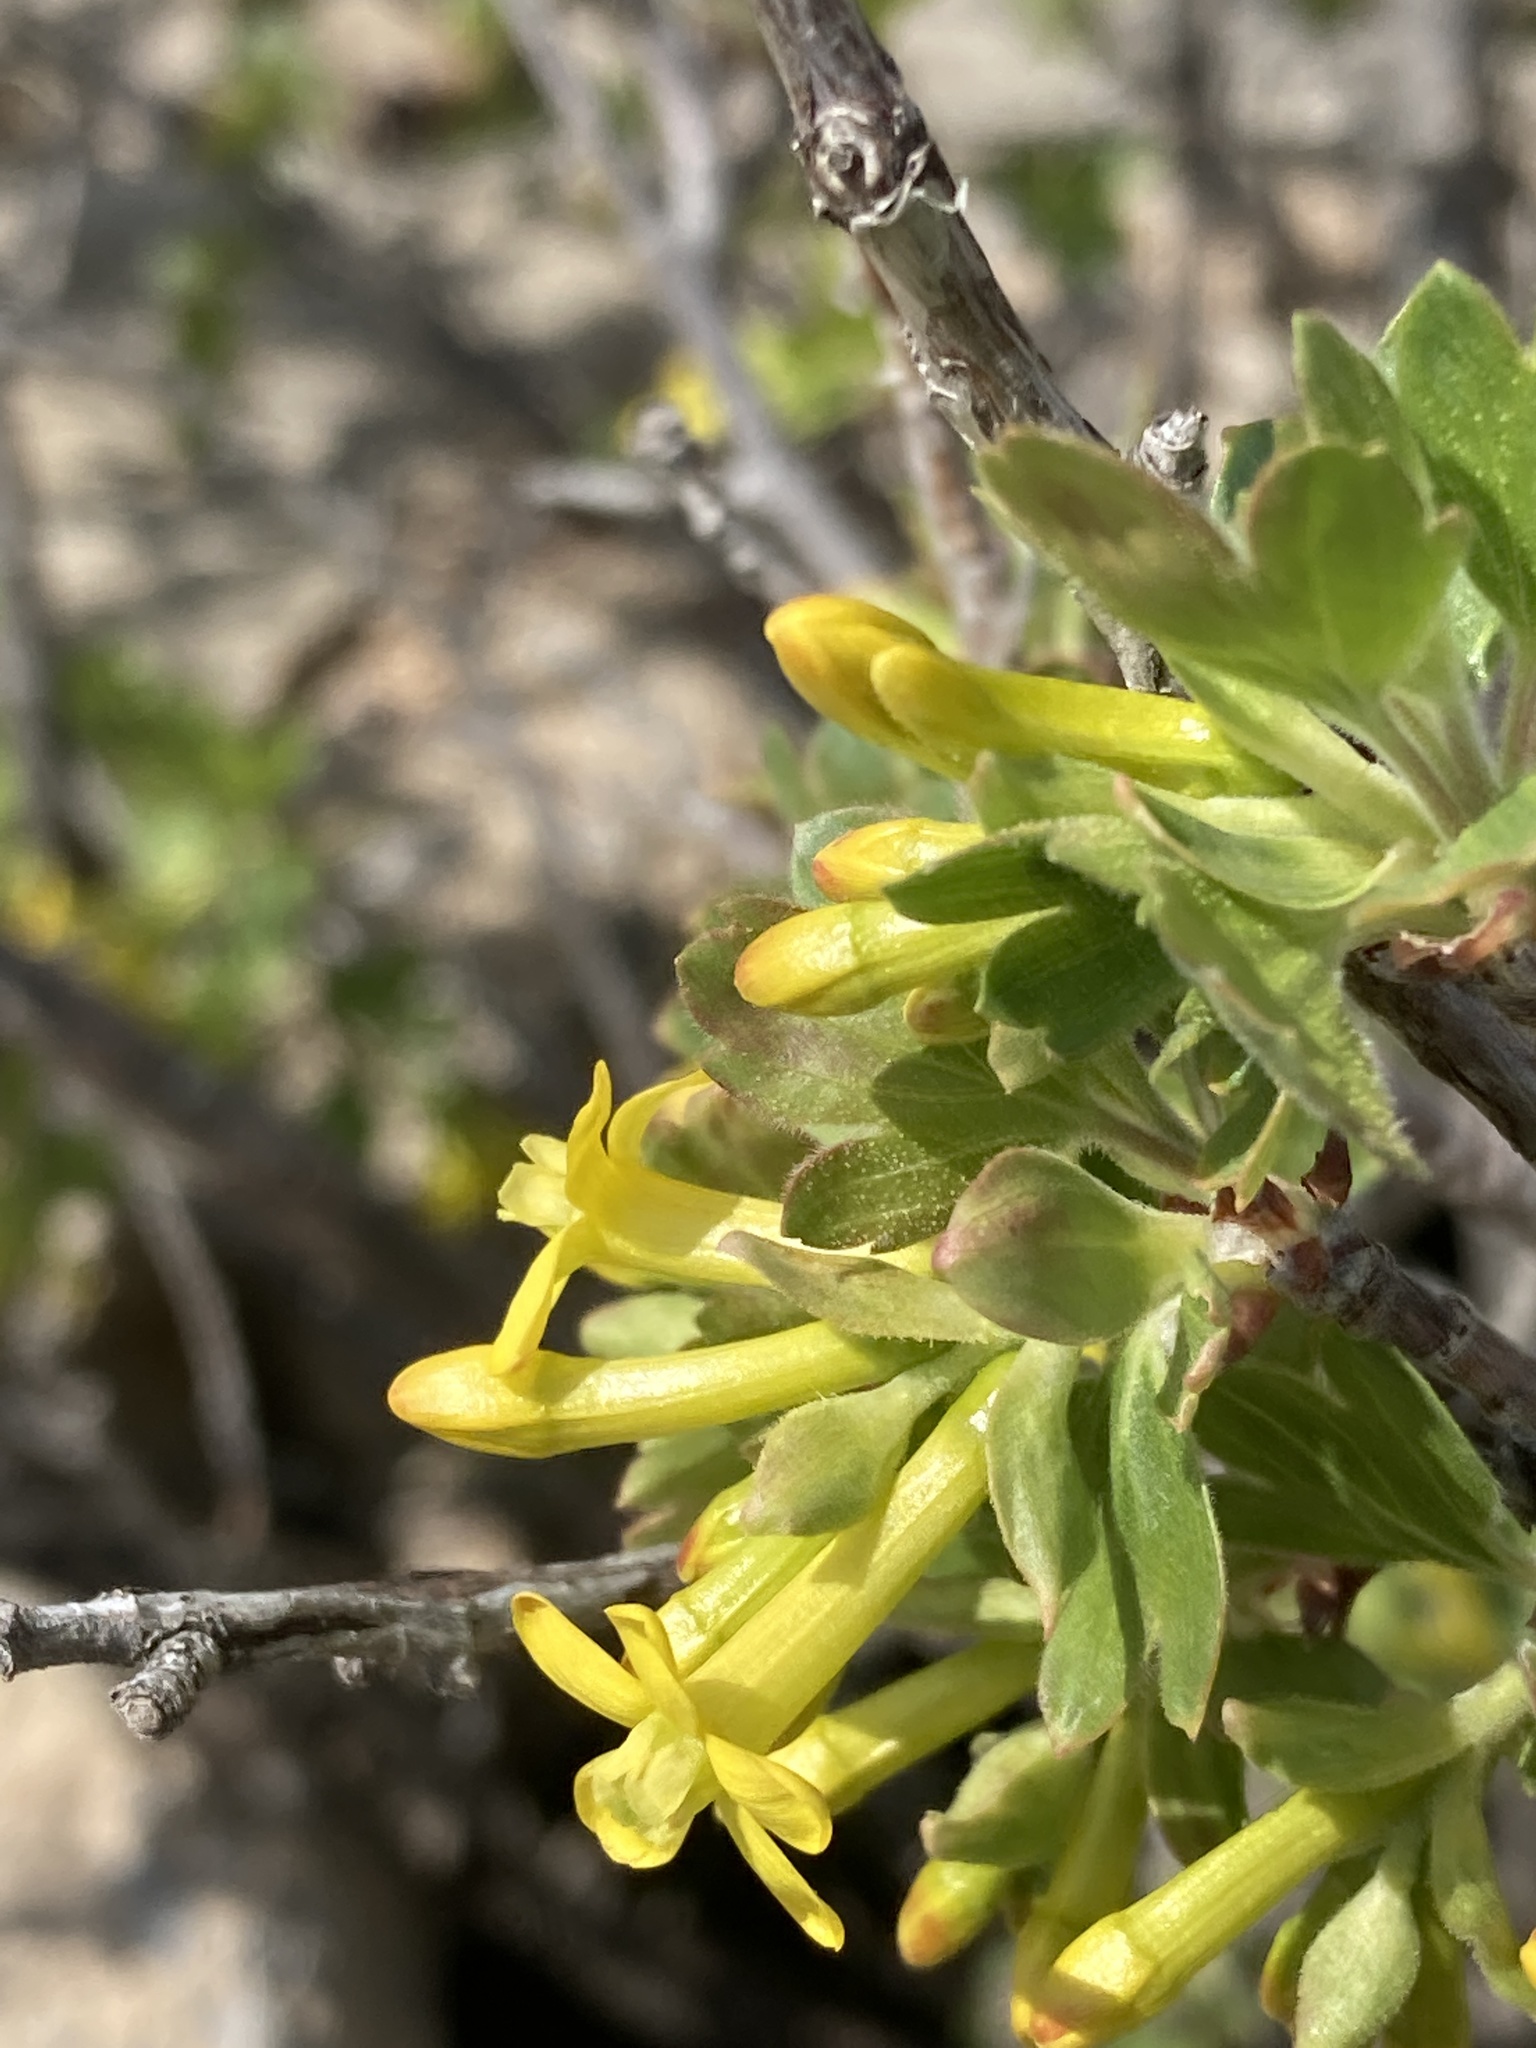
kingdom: Plantae
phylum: Tracheophyta
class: Magnoliopsida
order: Saxifragales
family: Grossulariaceae
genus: Ribes
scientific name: Ribes aureum
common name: Golden currant
